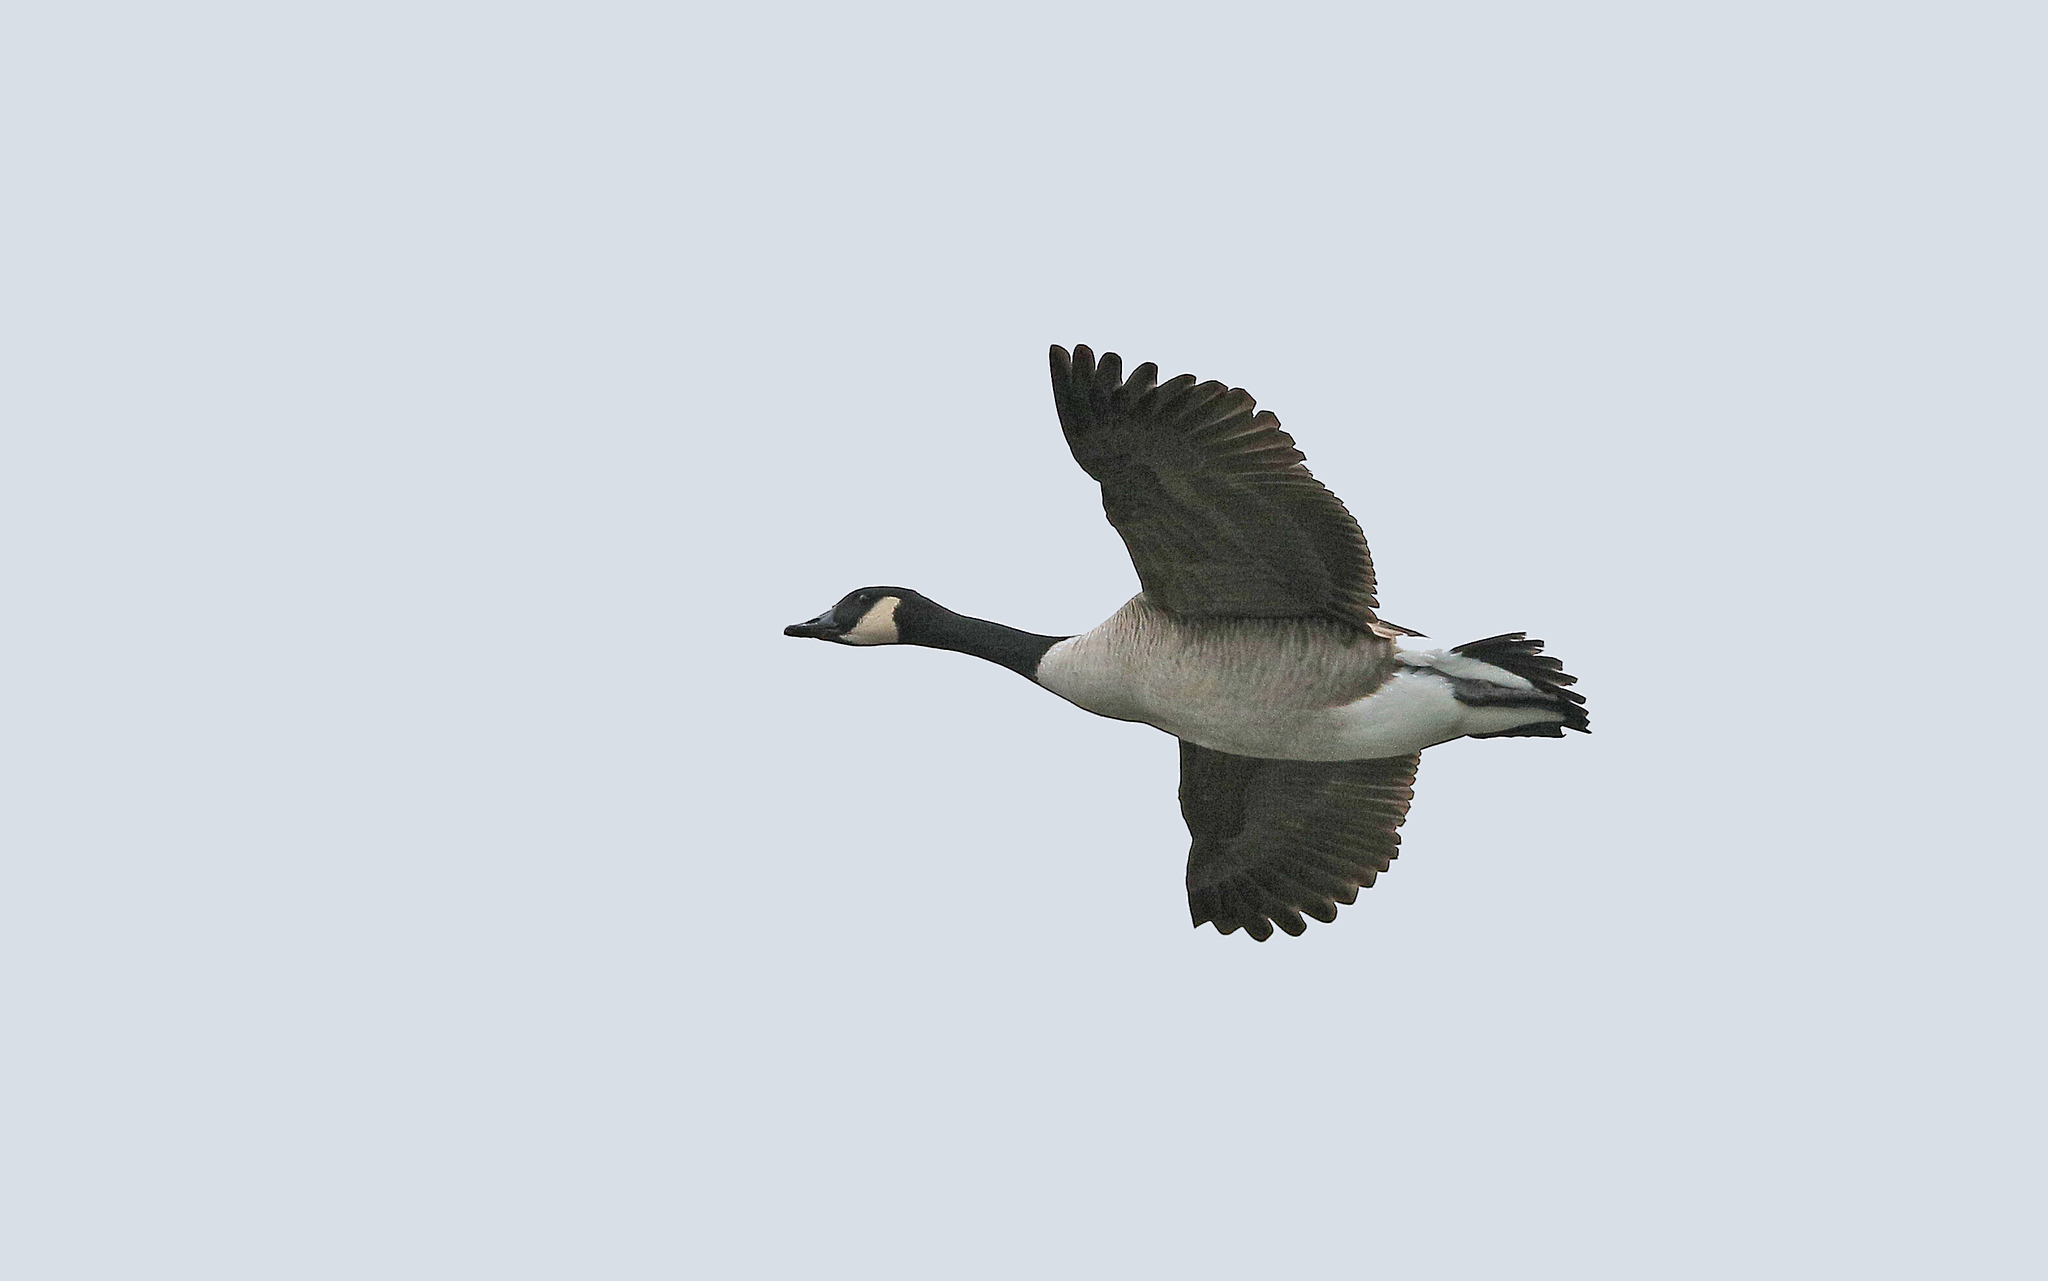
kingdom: Animalia
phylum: Chordata
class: Aves
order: Anseriformes
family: Anatidae
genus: Branta
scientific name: Branta canadensis
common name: Canada goose
